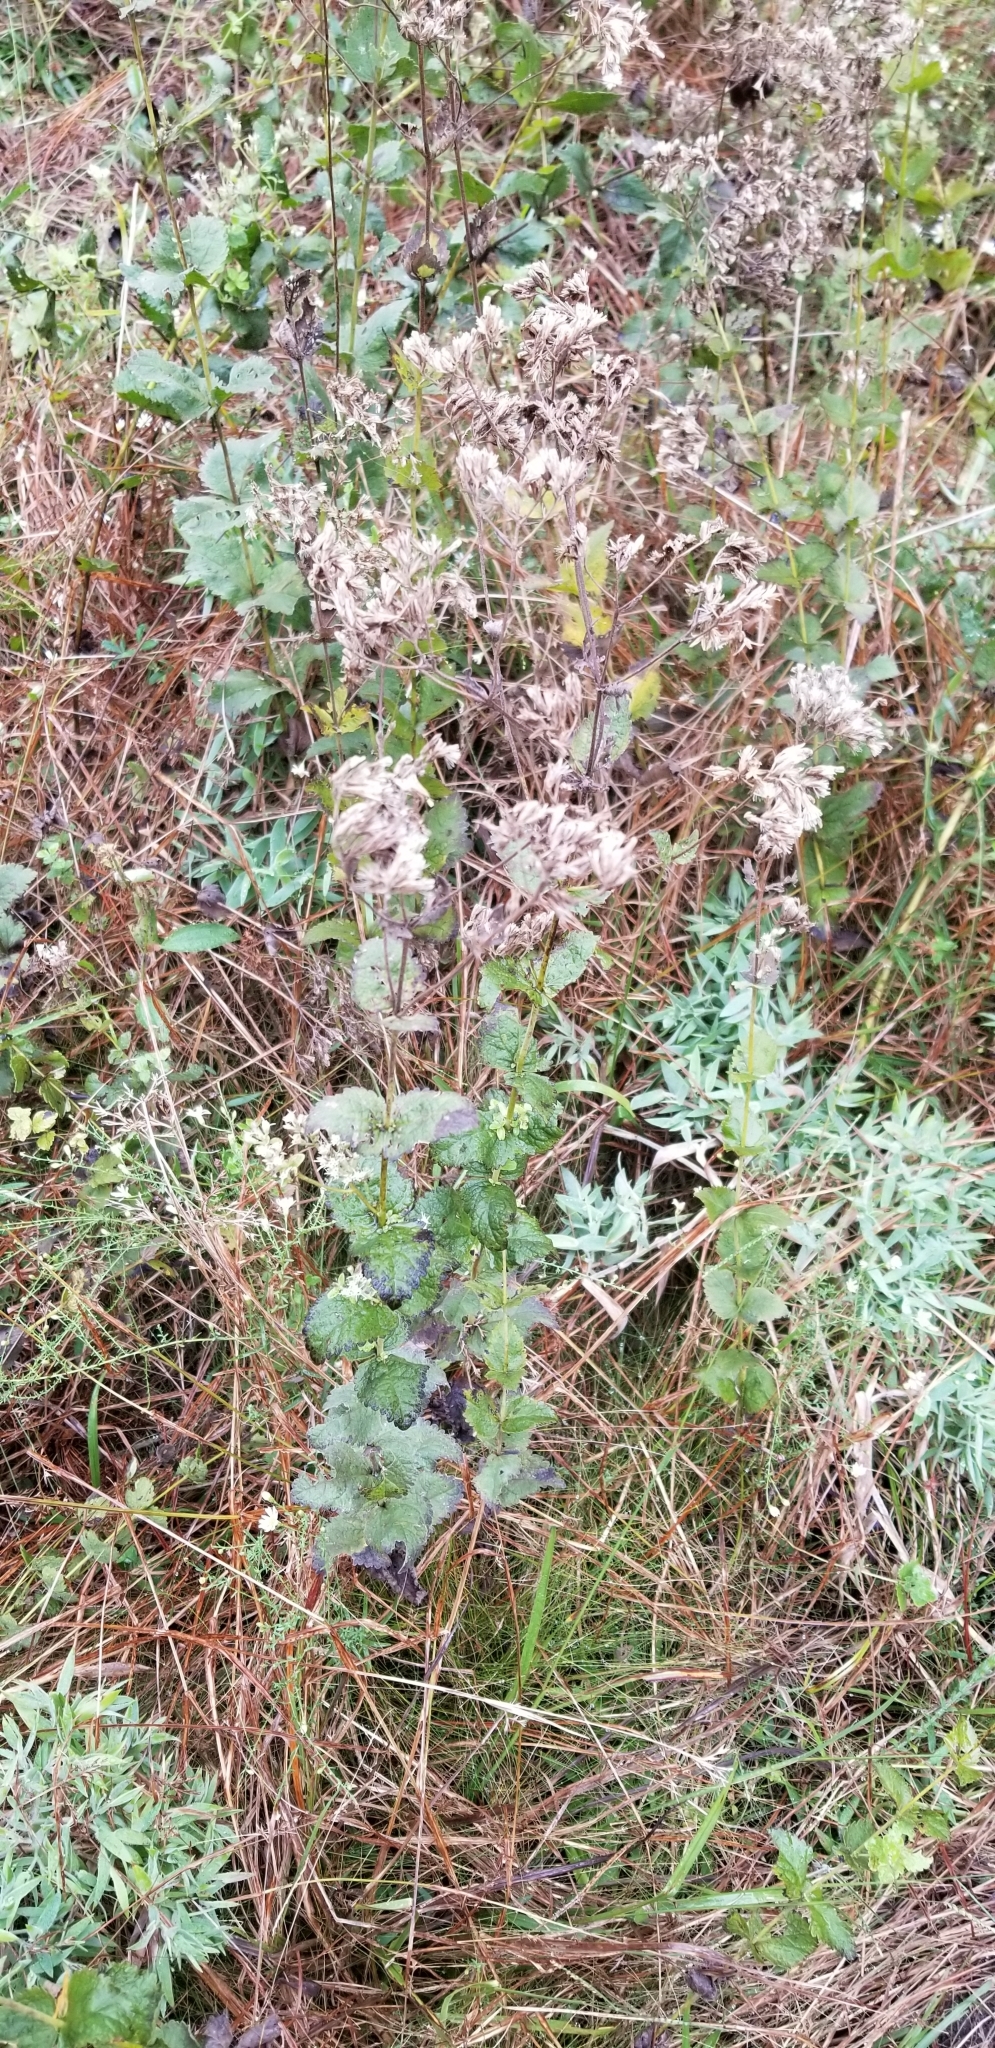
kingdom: Plantae
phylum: Tracheophyta
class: Magnoliopsida
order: Asterales
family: Asteraceae
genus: Eupatorium
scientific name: Eupatorium cordigerum
